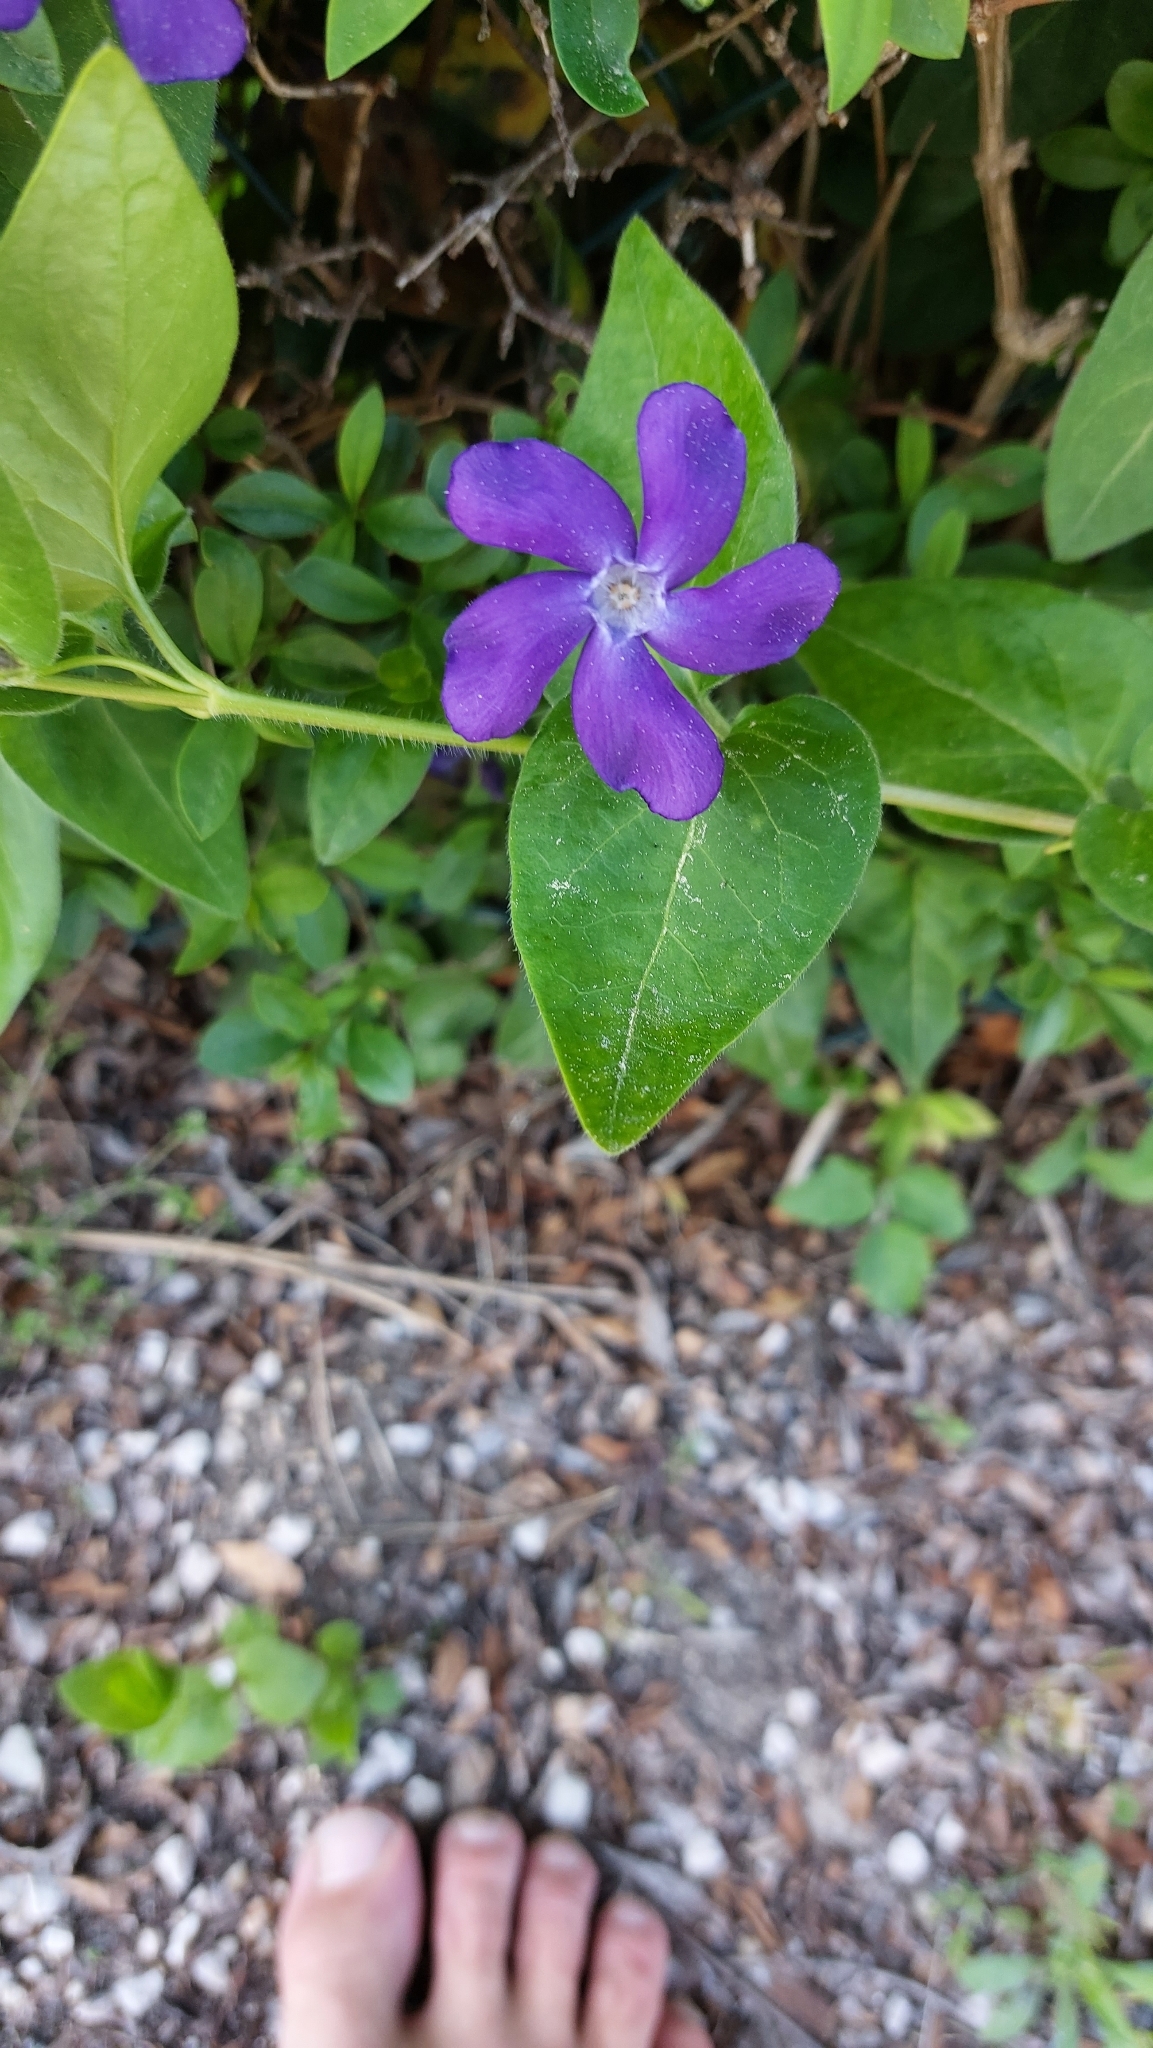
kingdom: Plantae
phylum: Tracheophyta
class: Magnoliopsida
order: Gentianales
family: Apocynaceae
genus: Vinca
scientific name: Vinca major
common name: Greater periwinkle
